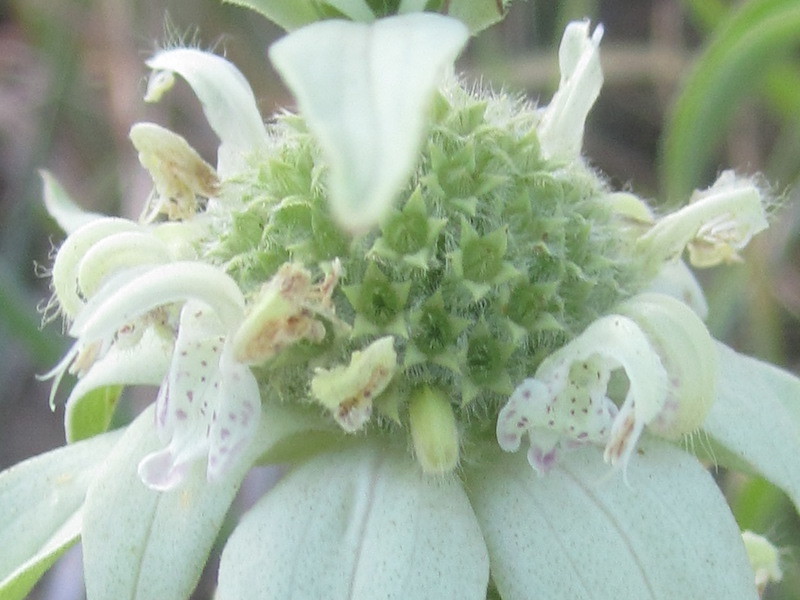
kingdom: Plantae
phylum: Tracheophyta
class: Magnoliopsida
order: Lamiales
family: Lamiaceae
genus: Monarda
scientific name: Monarda punctata
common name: Dotted monarda
